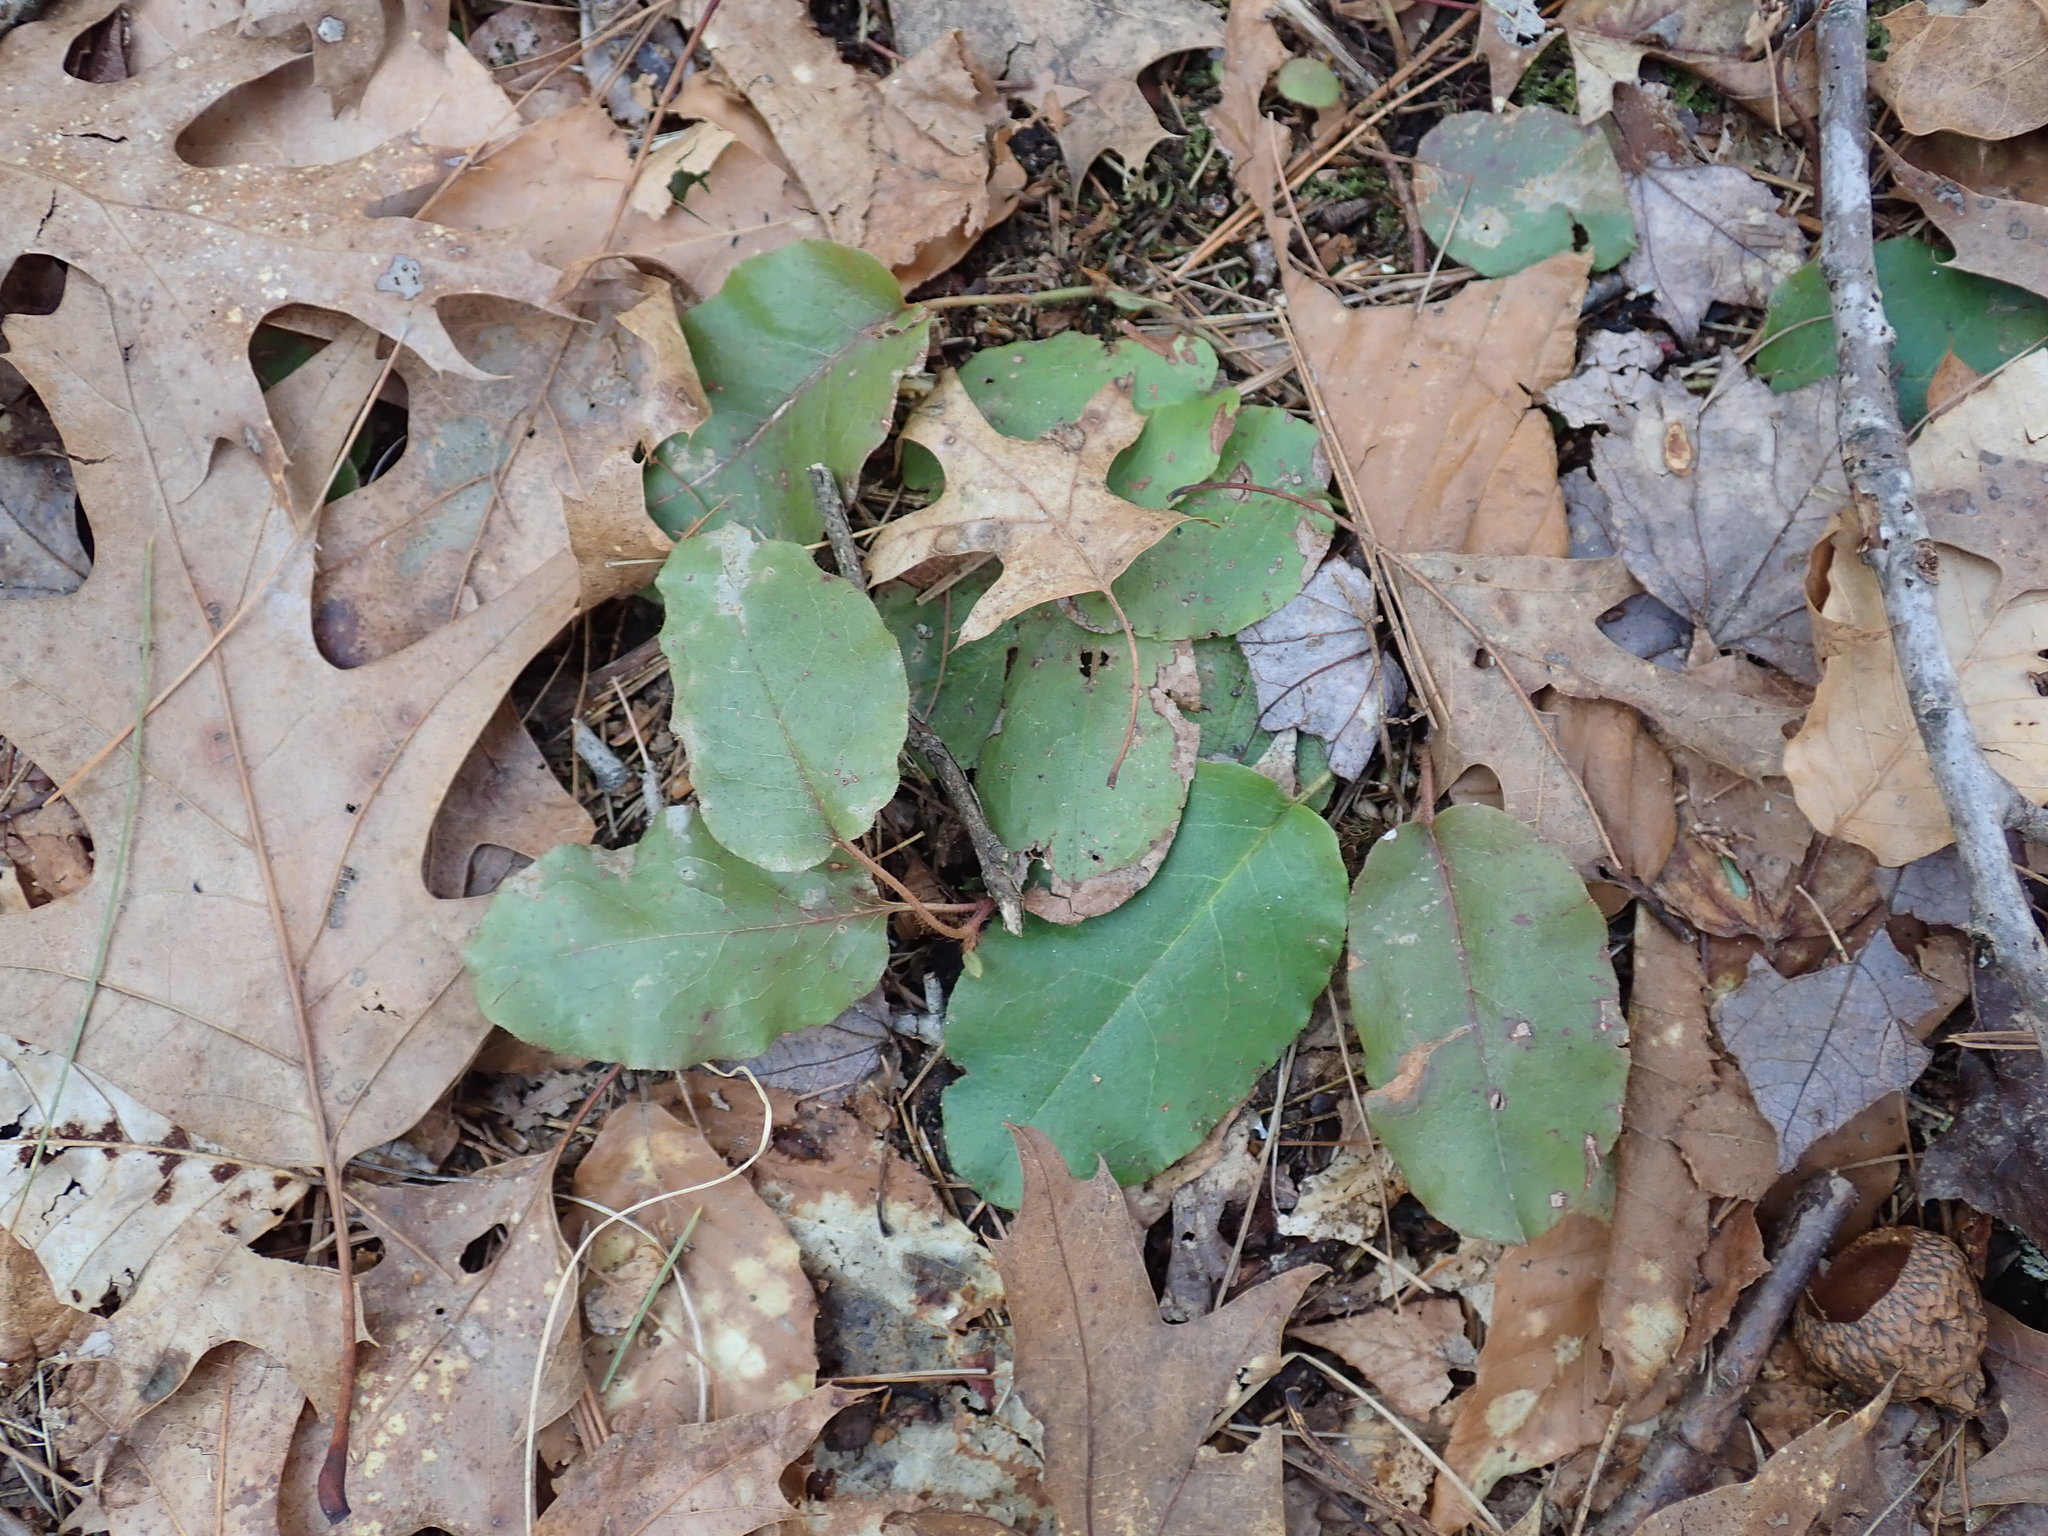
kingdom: Plantae
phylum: Tracheophyta
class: Magnoliopsida
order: Ericales
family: Ericaceae
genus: Epigaea
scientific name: Epigaea repens
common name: Gravelroot
